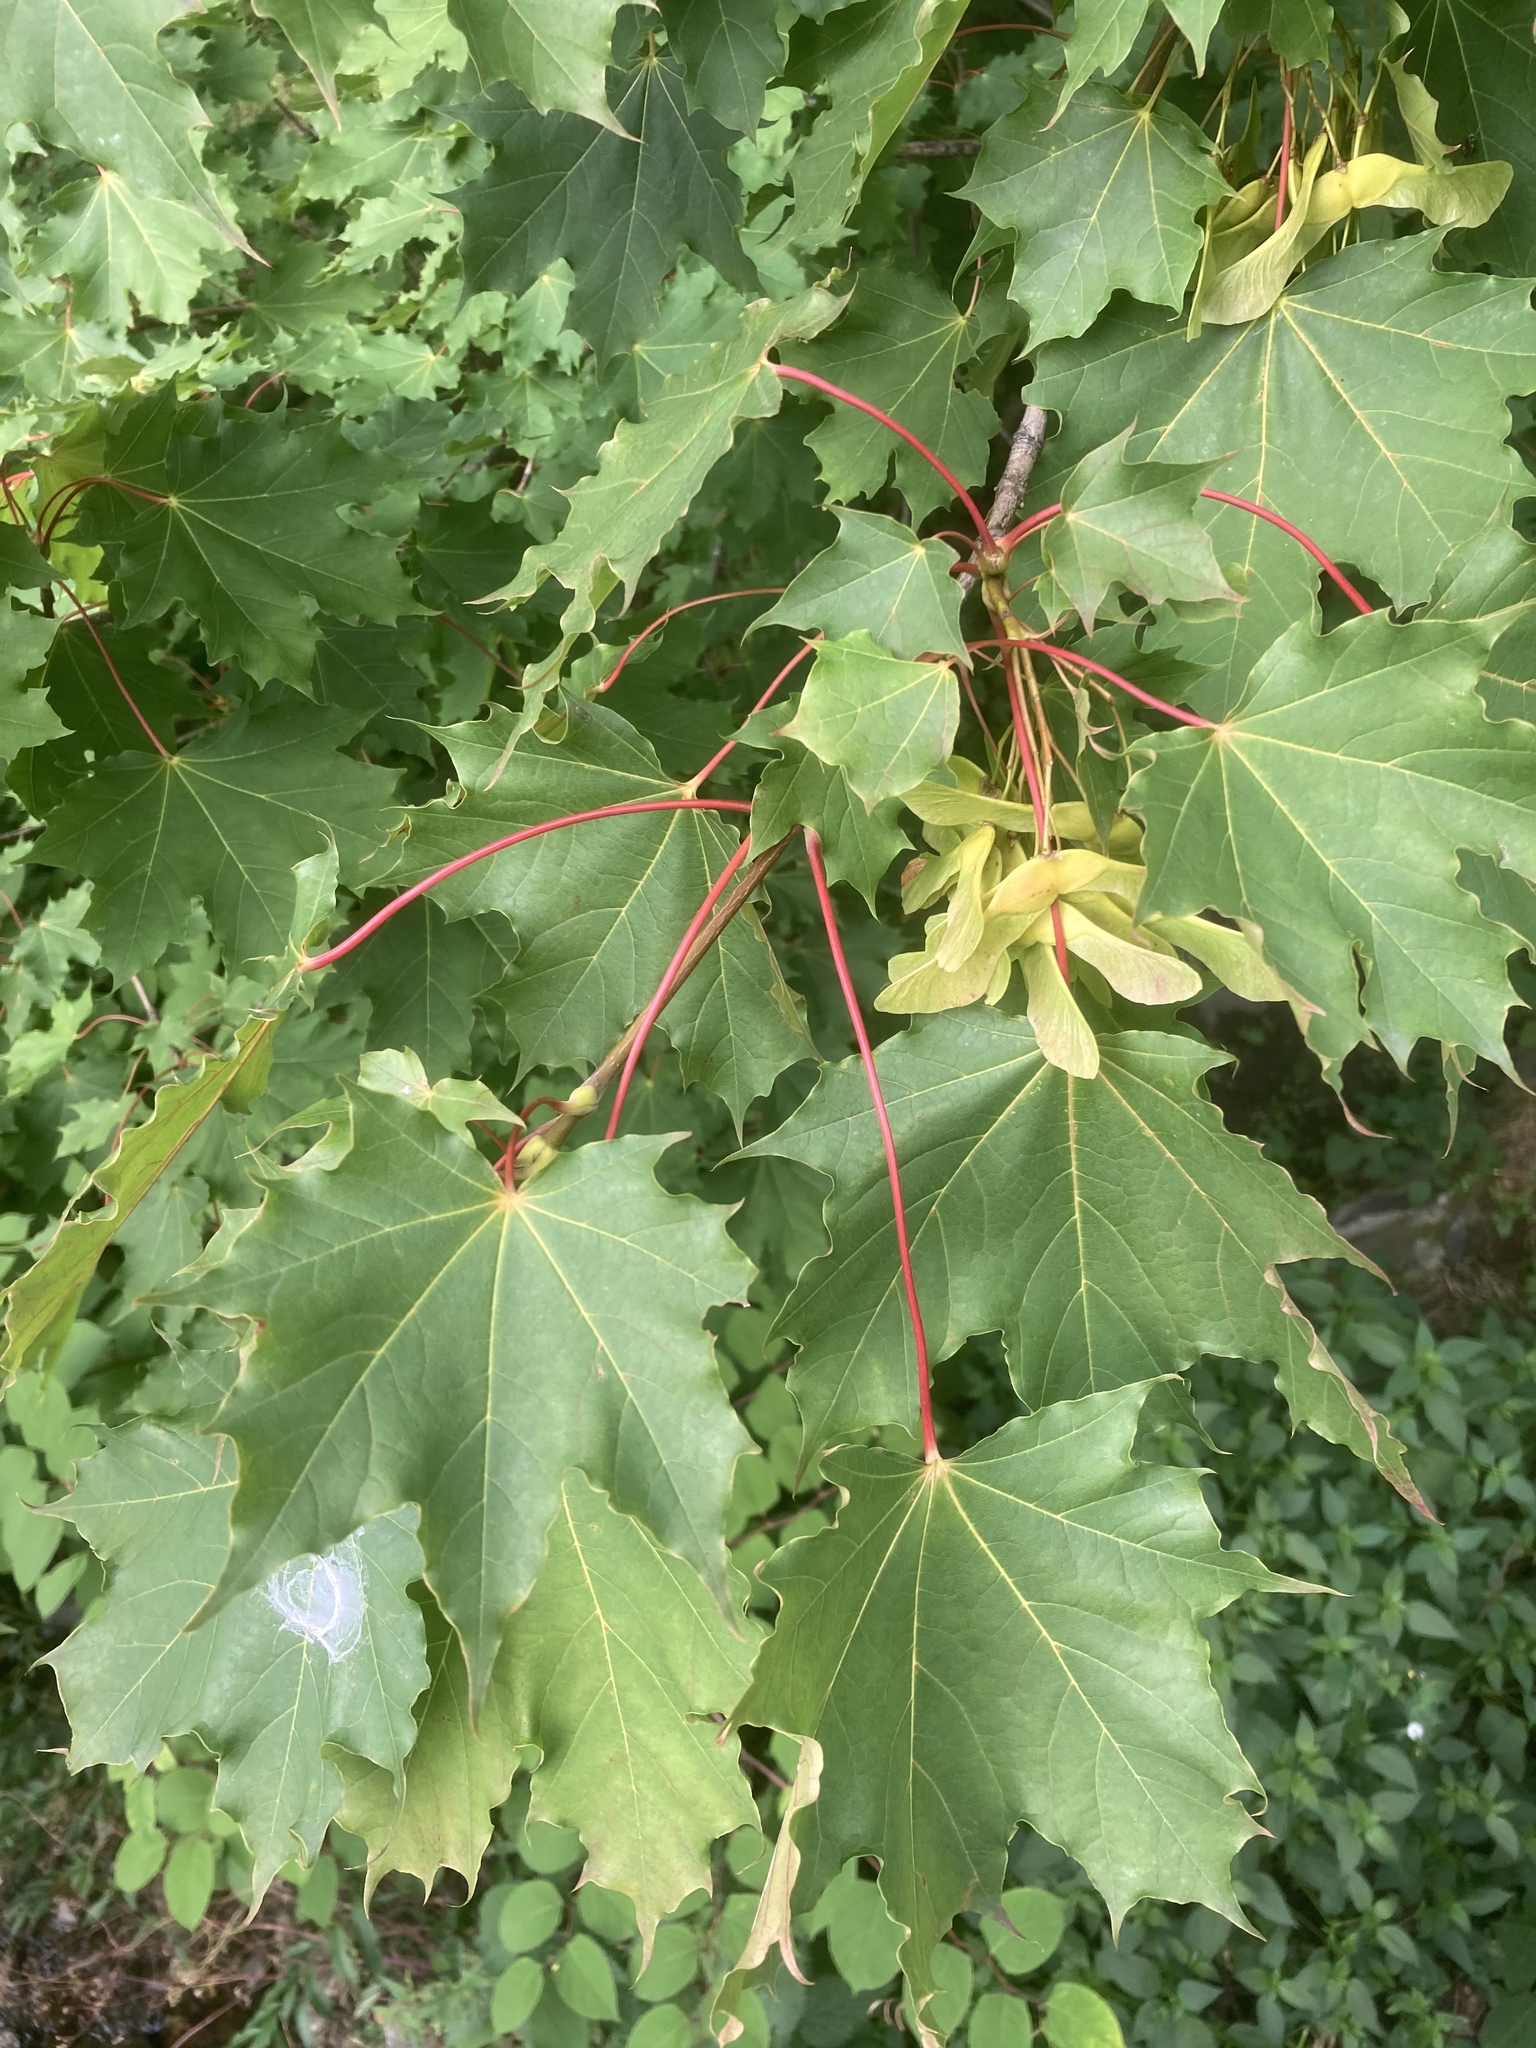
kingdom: Plantae
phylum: Tracheophyta
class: Magnoliopsida
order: Sapindales
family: Sapindaceae
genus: Acer
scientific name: Acer platanoides
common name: Norway maple
